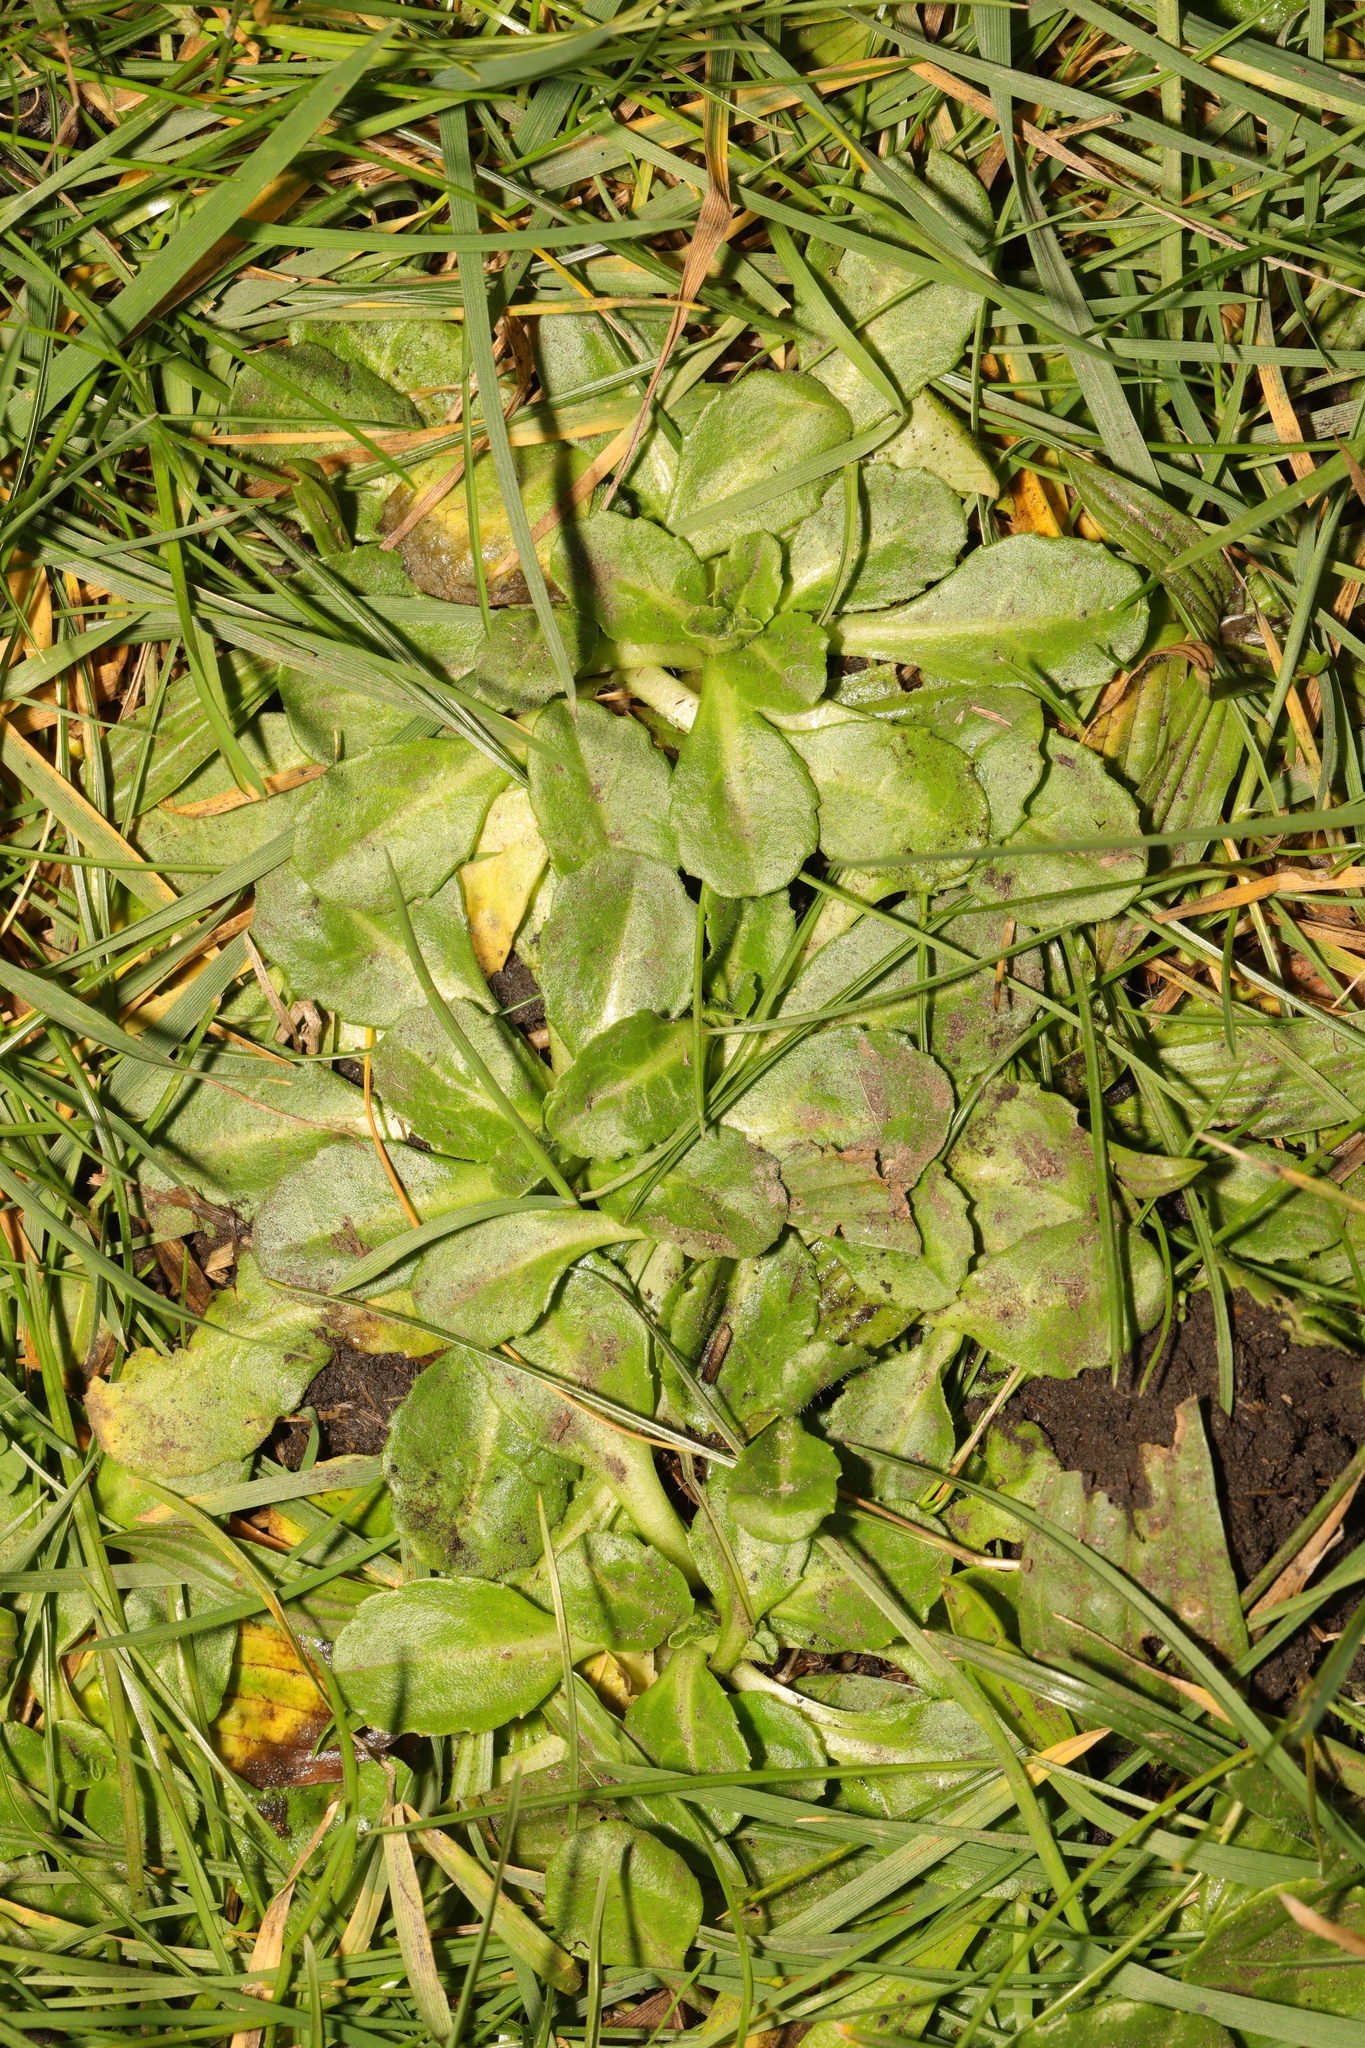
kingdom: Plantae
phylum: Tracheophyta
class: Magnoliopsida
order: Asterales
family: Asteraceae
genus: Bellis
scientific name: Bellis perennis
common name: Lawndaisy
